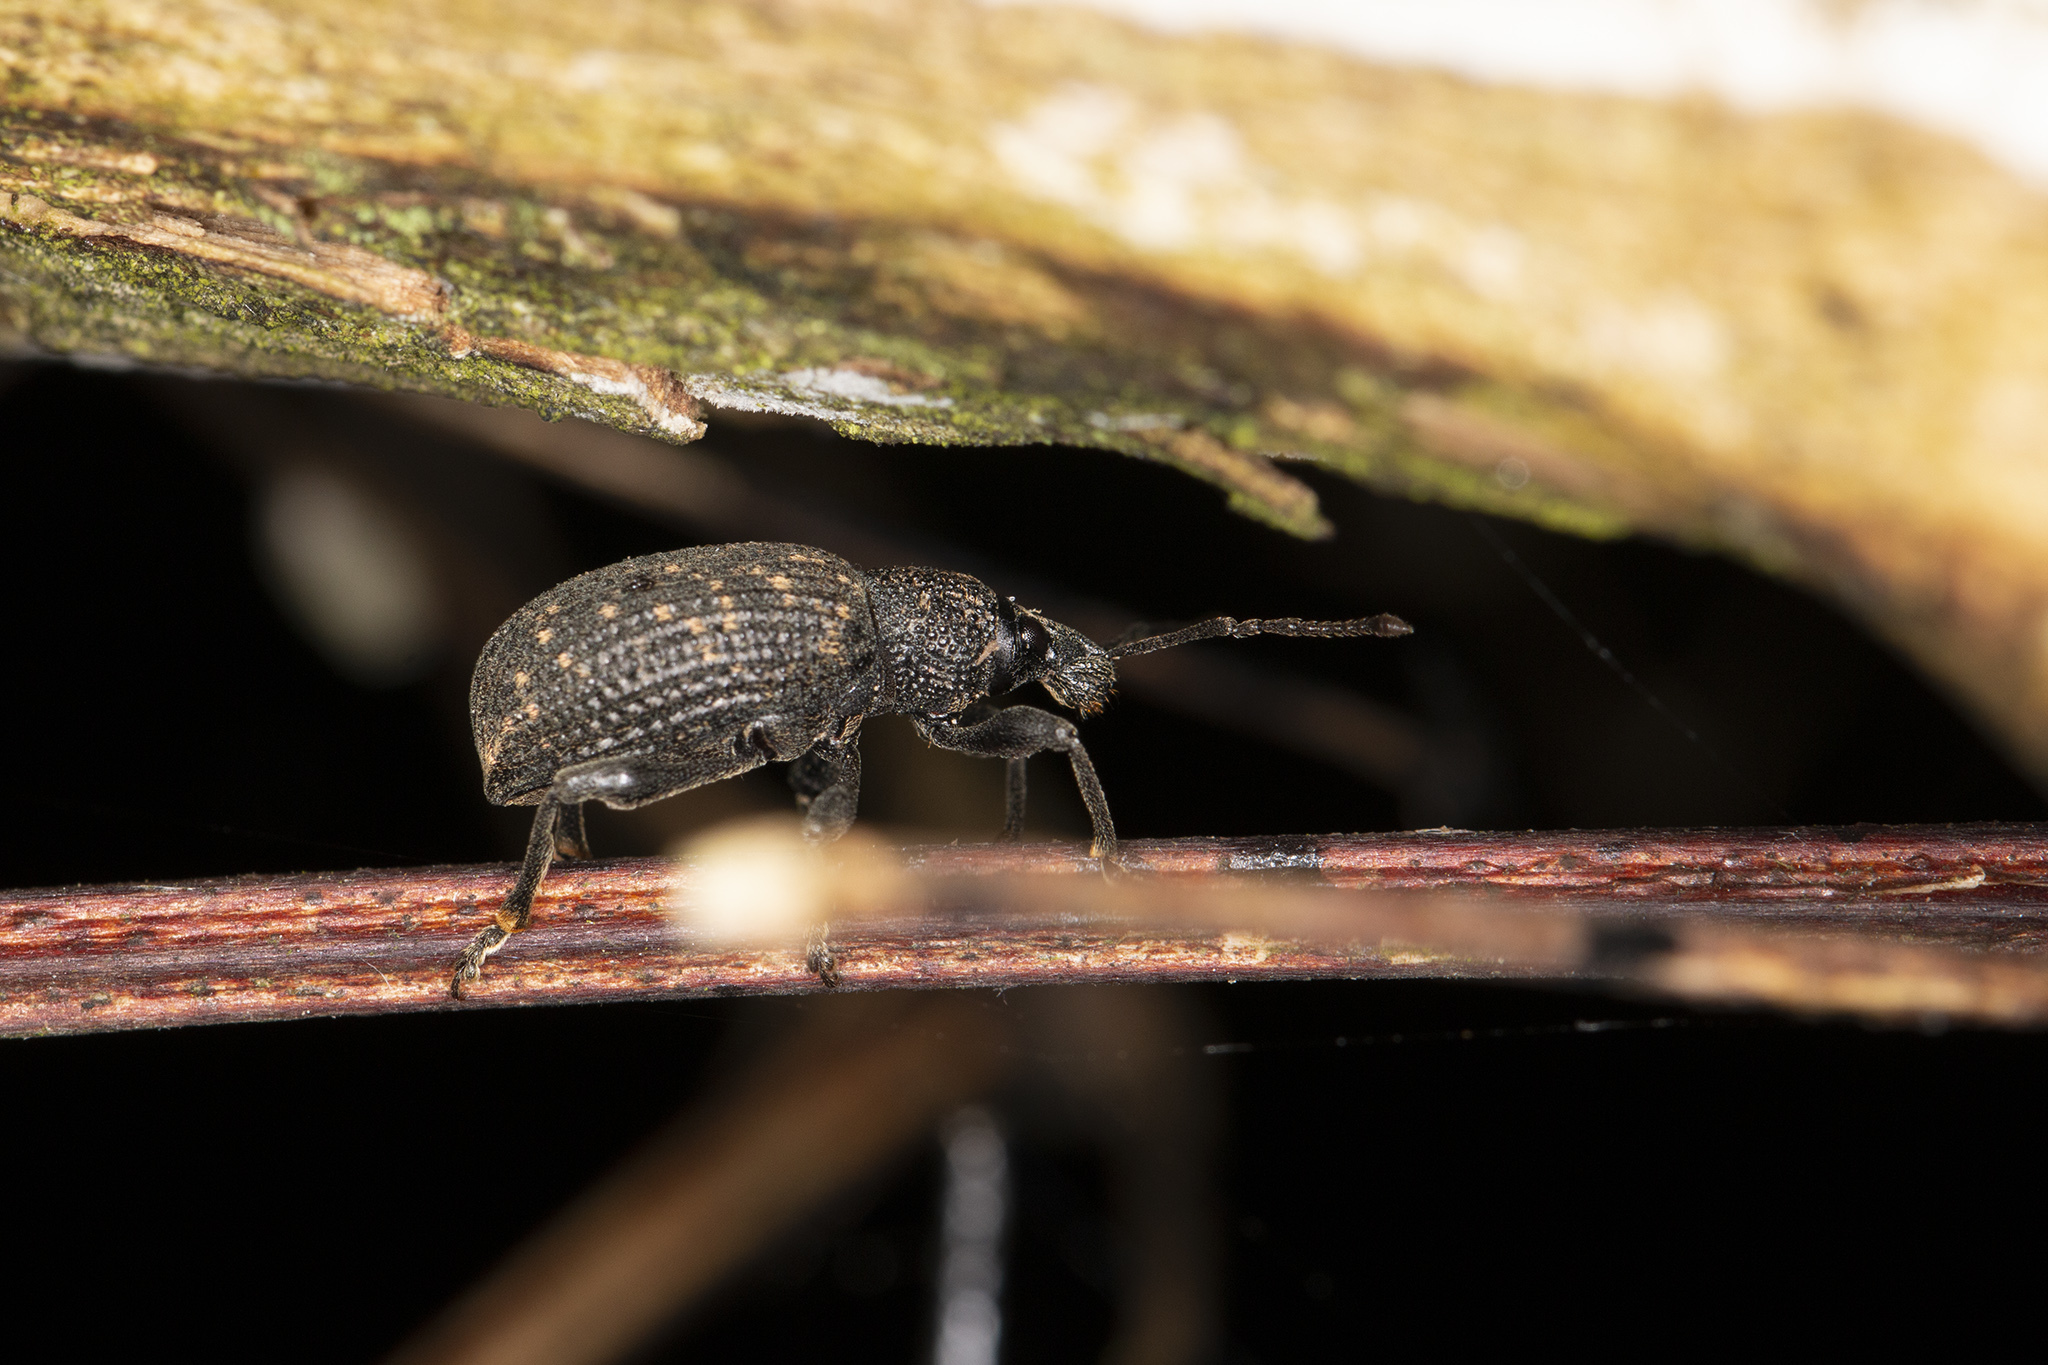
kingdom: Animalia
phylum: Arthropoda
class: Insecta
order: Coleoptera
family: Curculionidae
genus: Otiorhynchus
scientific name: Otiorhynchus sulcatus
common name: Black vine weevil
